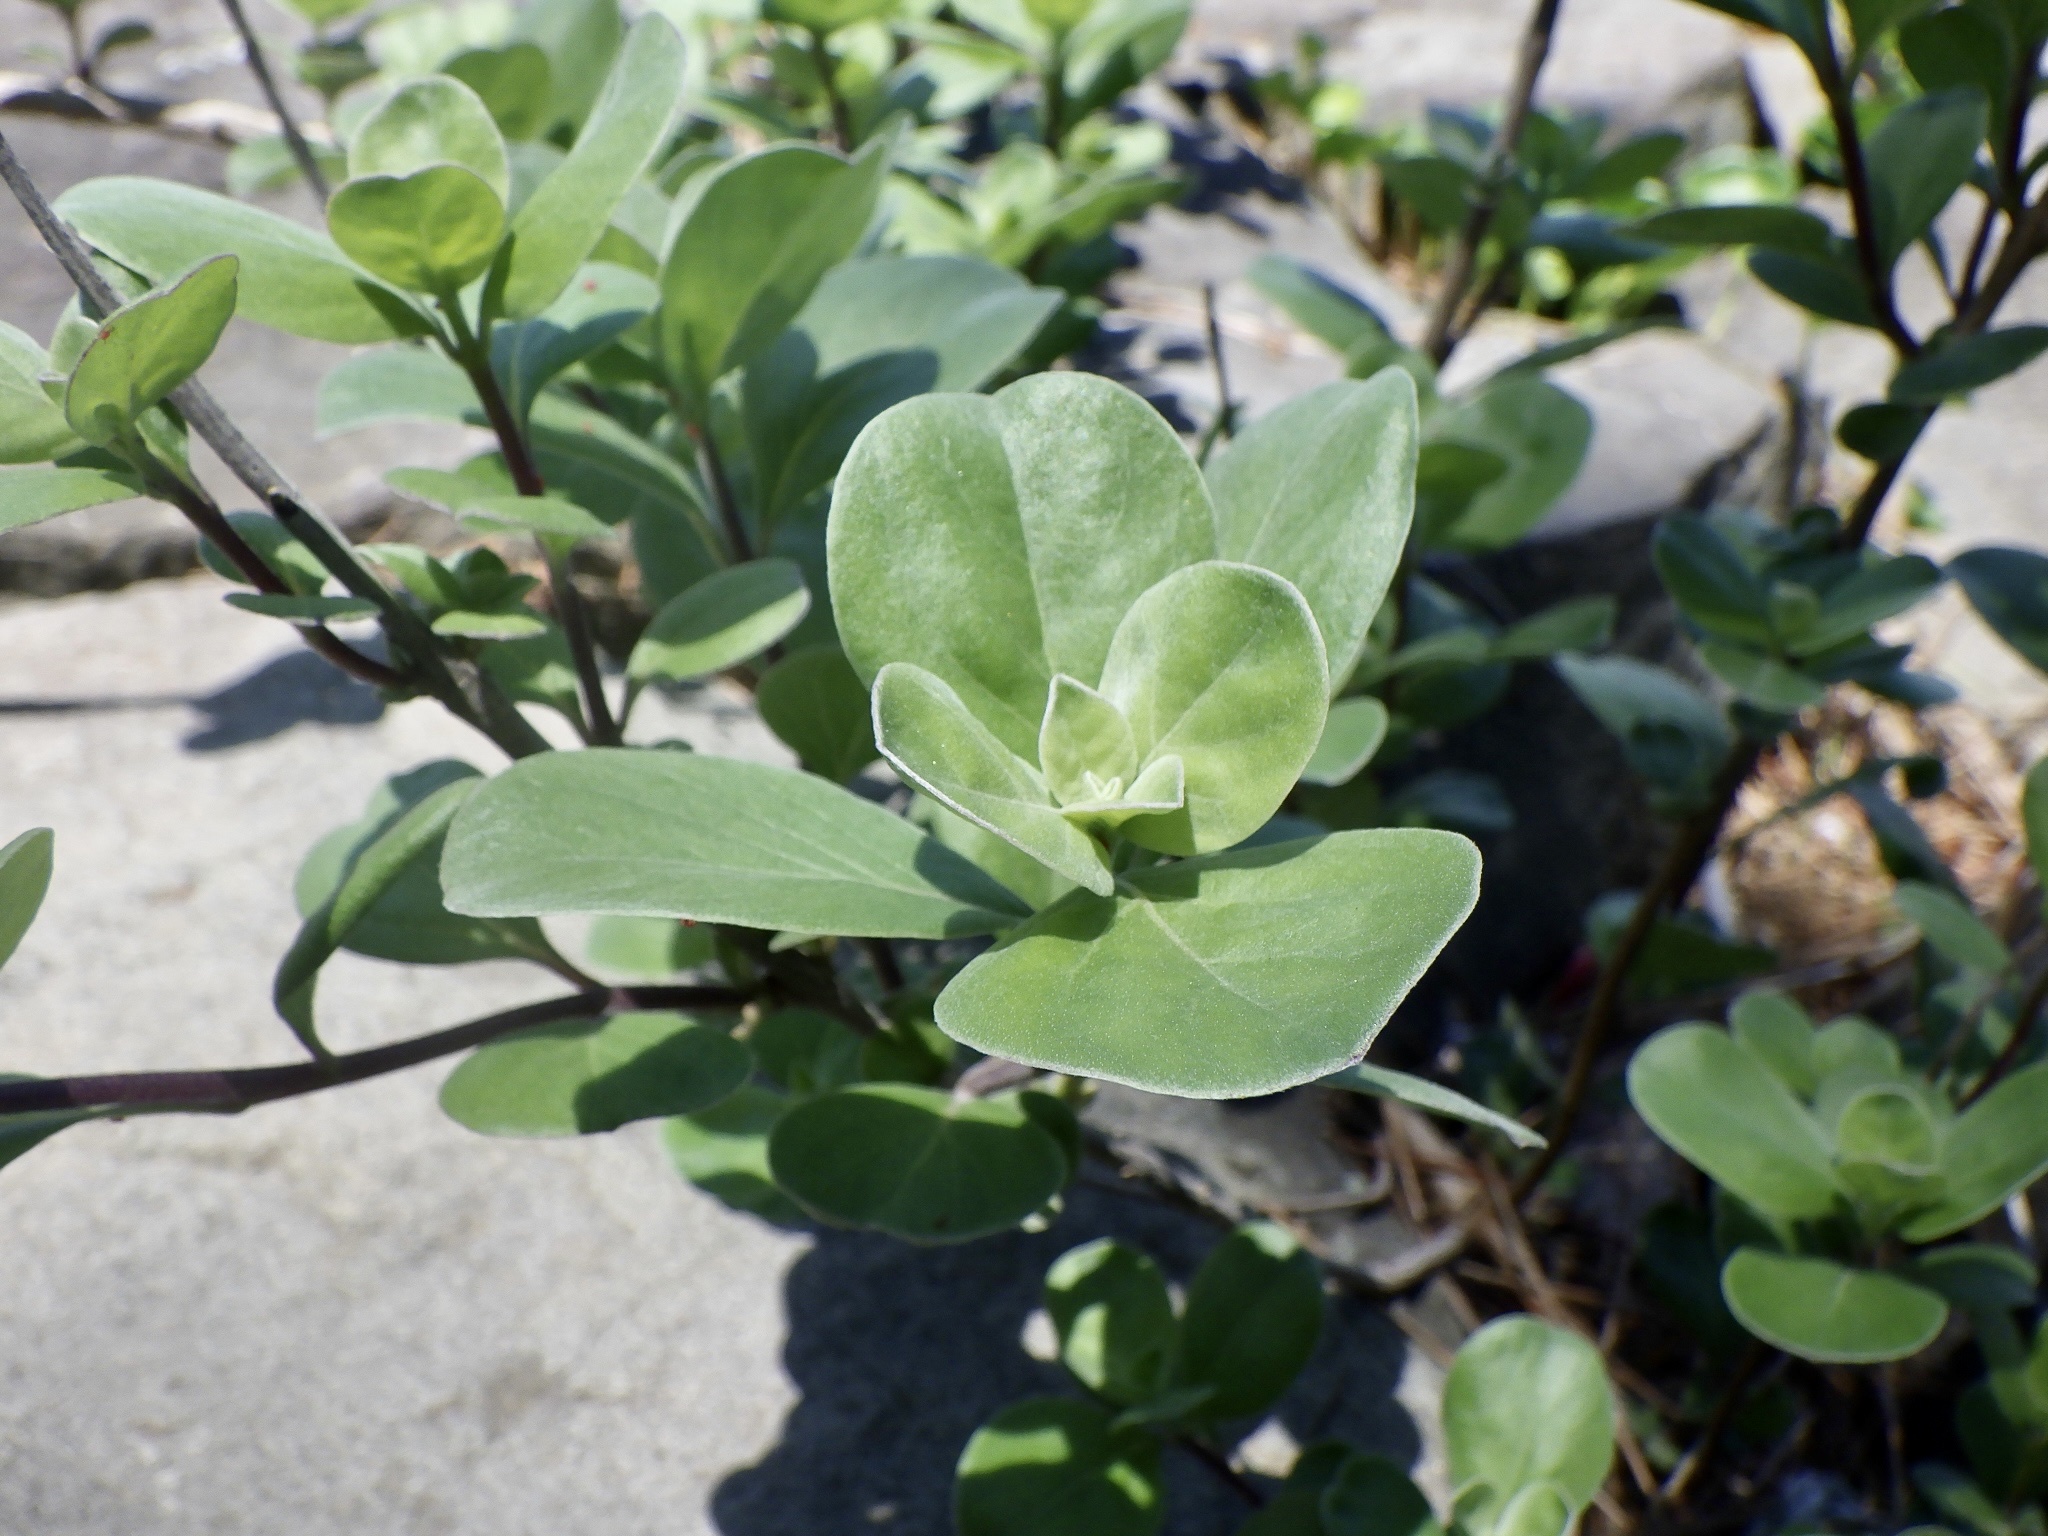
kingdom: Plantae
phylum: Tracheophyta
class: Magnoliopsida
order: Lamiales
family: Lamiaceae
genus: Vitex
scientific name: Vitex rotundifolia
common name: Beach vitex
